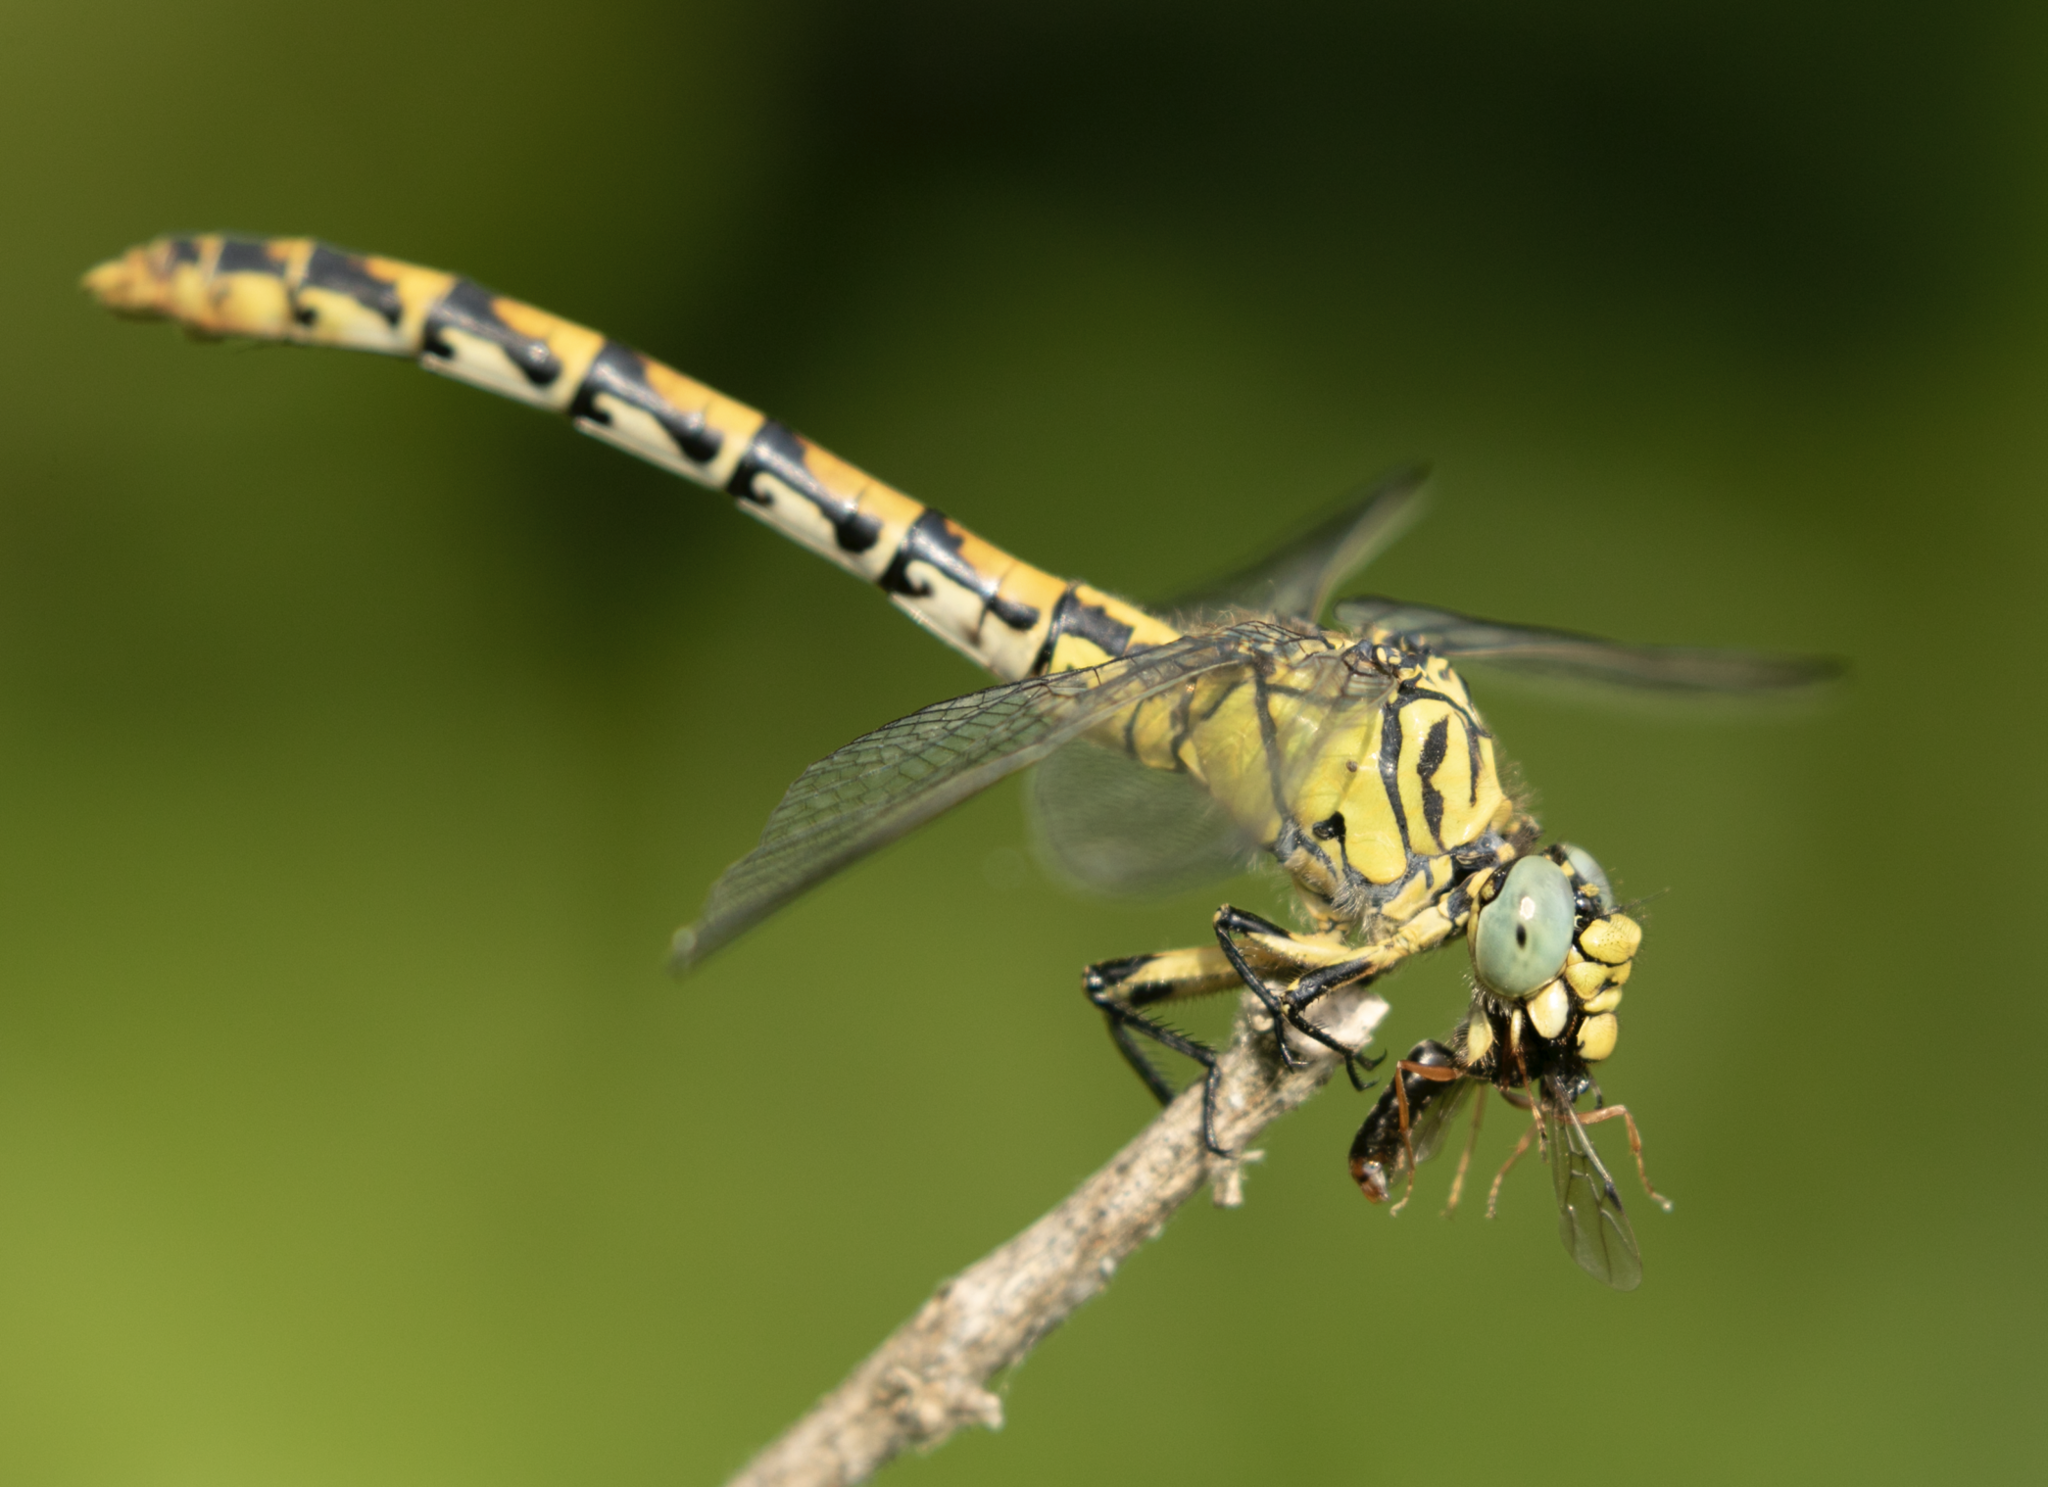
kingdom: Animalia
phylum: Arthropoda
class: Insecta
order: Odonata
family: Gomphidae
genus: Onychogomphus
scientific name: Onychogomphus forcipatus
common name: Small pincertail
